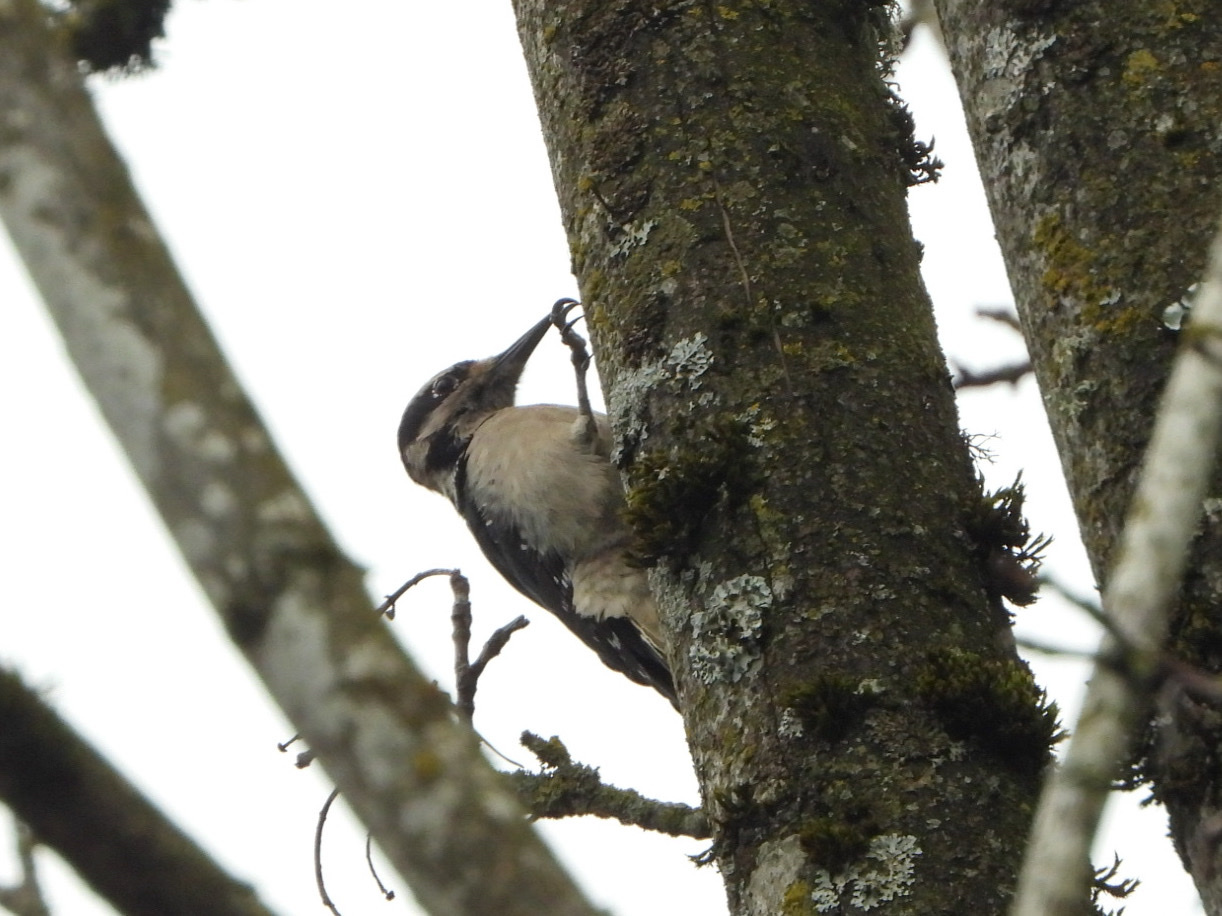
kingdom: Animalia
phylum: Chordata
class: Aves
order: Piciformes
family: Picidae
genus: Leuconotopicus
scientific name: Leuconotopicus villosus
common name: Hairy woodpecker
